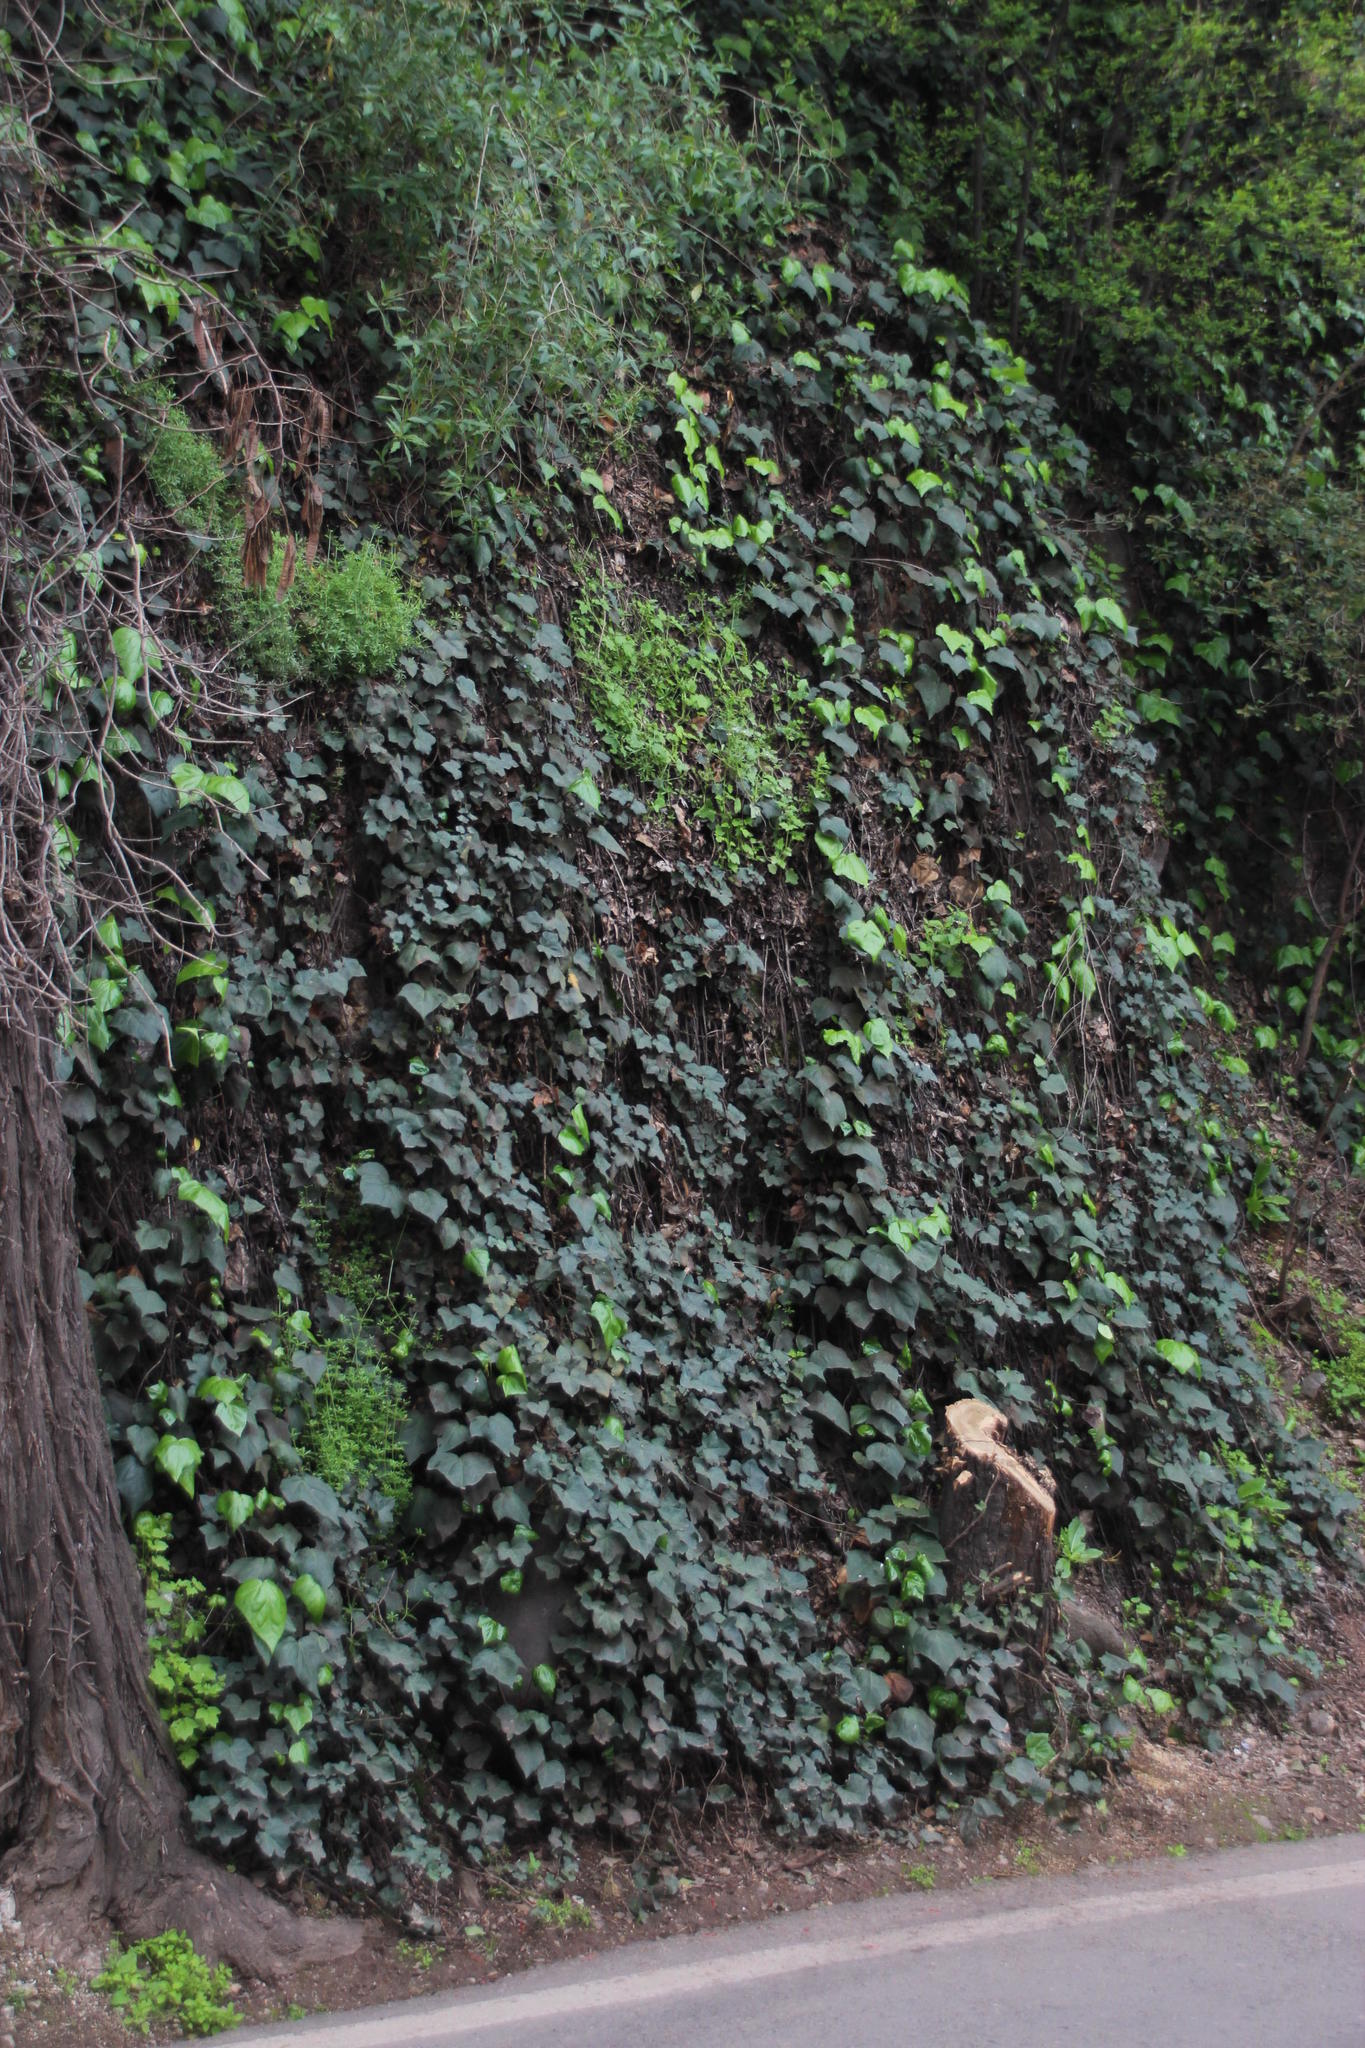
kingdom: Plantae
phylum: Tracheophyta
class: Magnoliopsida
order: Apiales
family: Araliaceae
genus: Hedera
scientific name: Hedera helix
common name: Ivy
